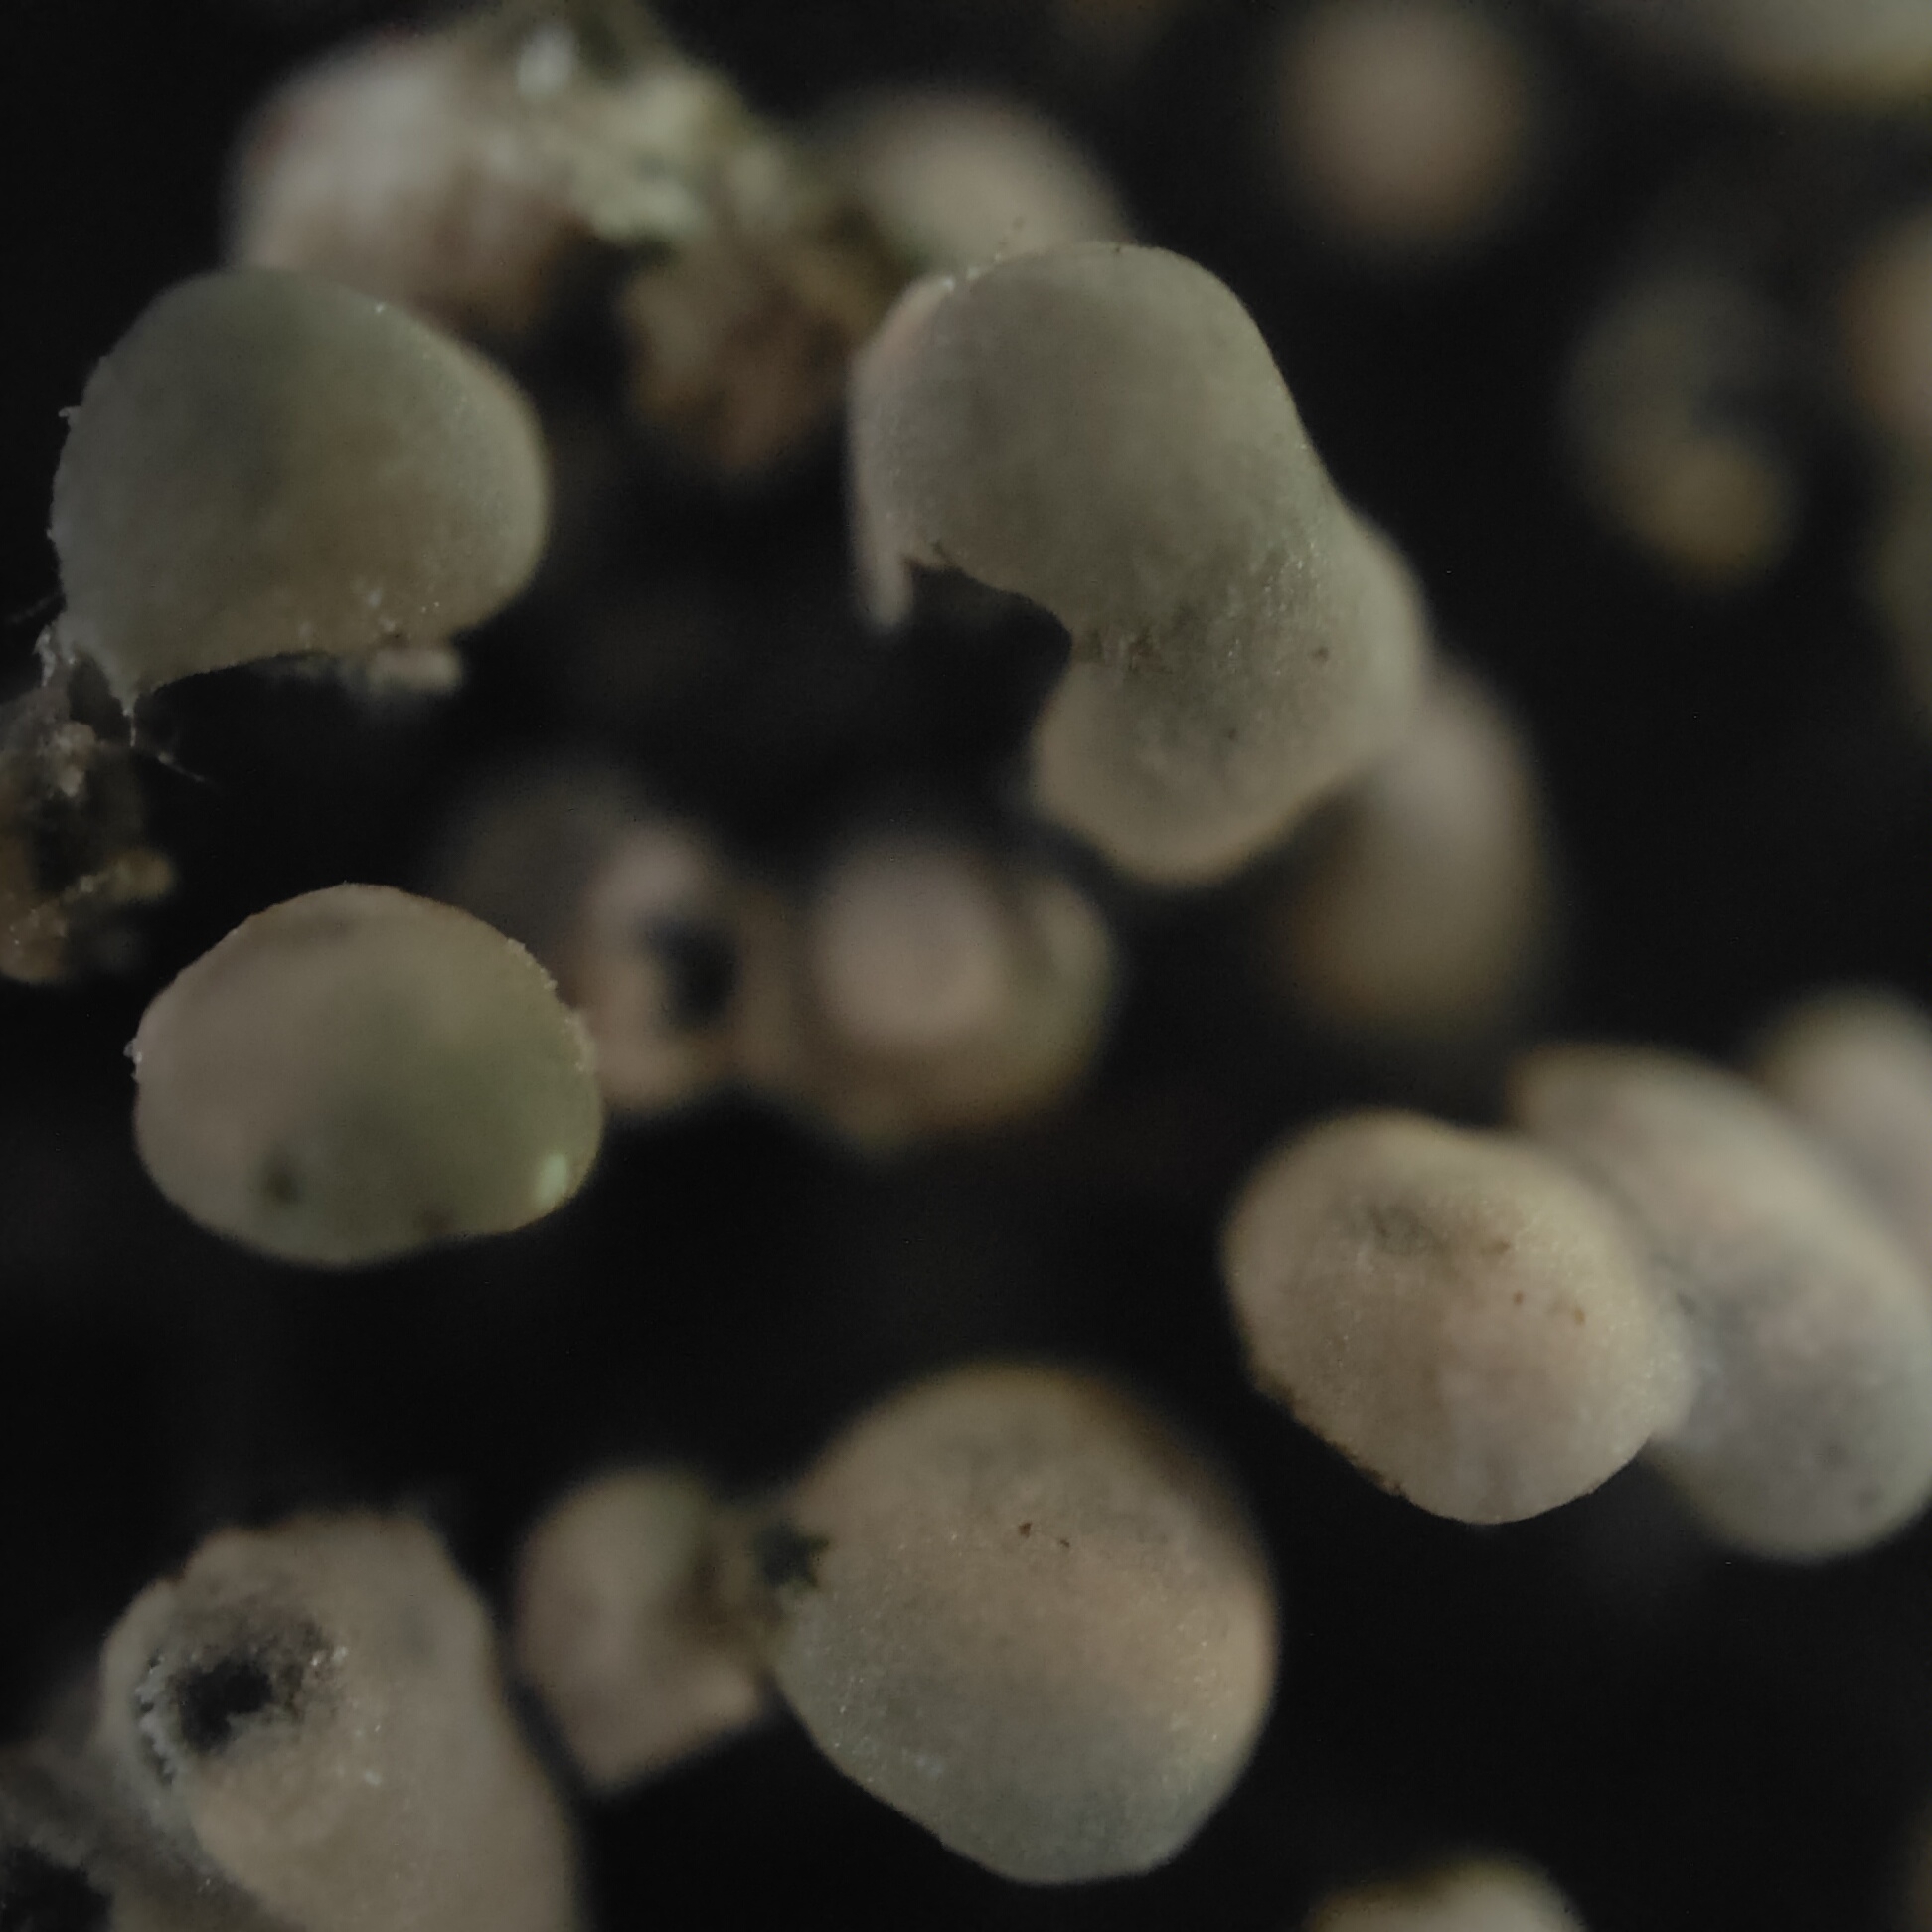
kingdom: Fungi
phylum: Ascomycota
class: Sordariomycetes
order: Hypocreales
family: Nectriaceae
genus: Murinectria
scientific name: Murinectria polythalama
